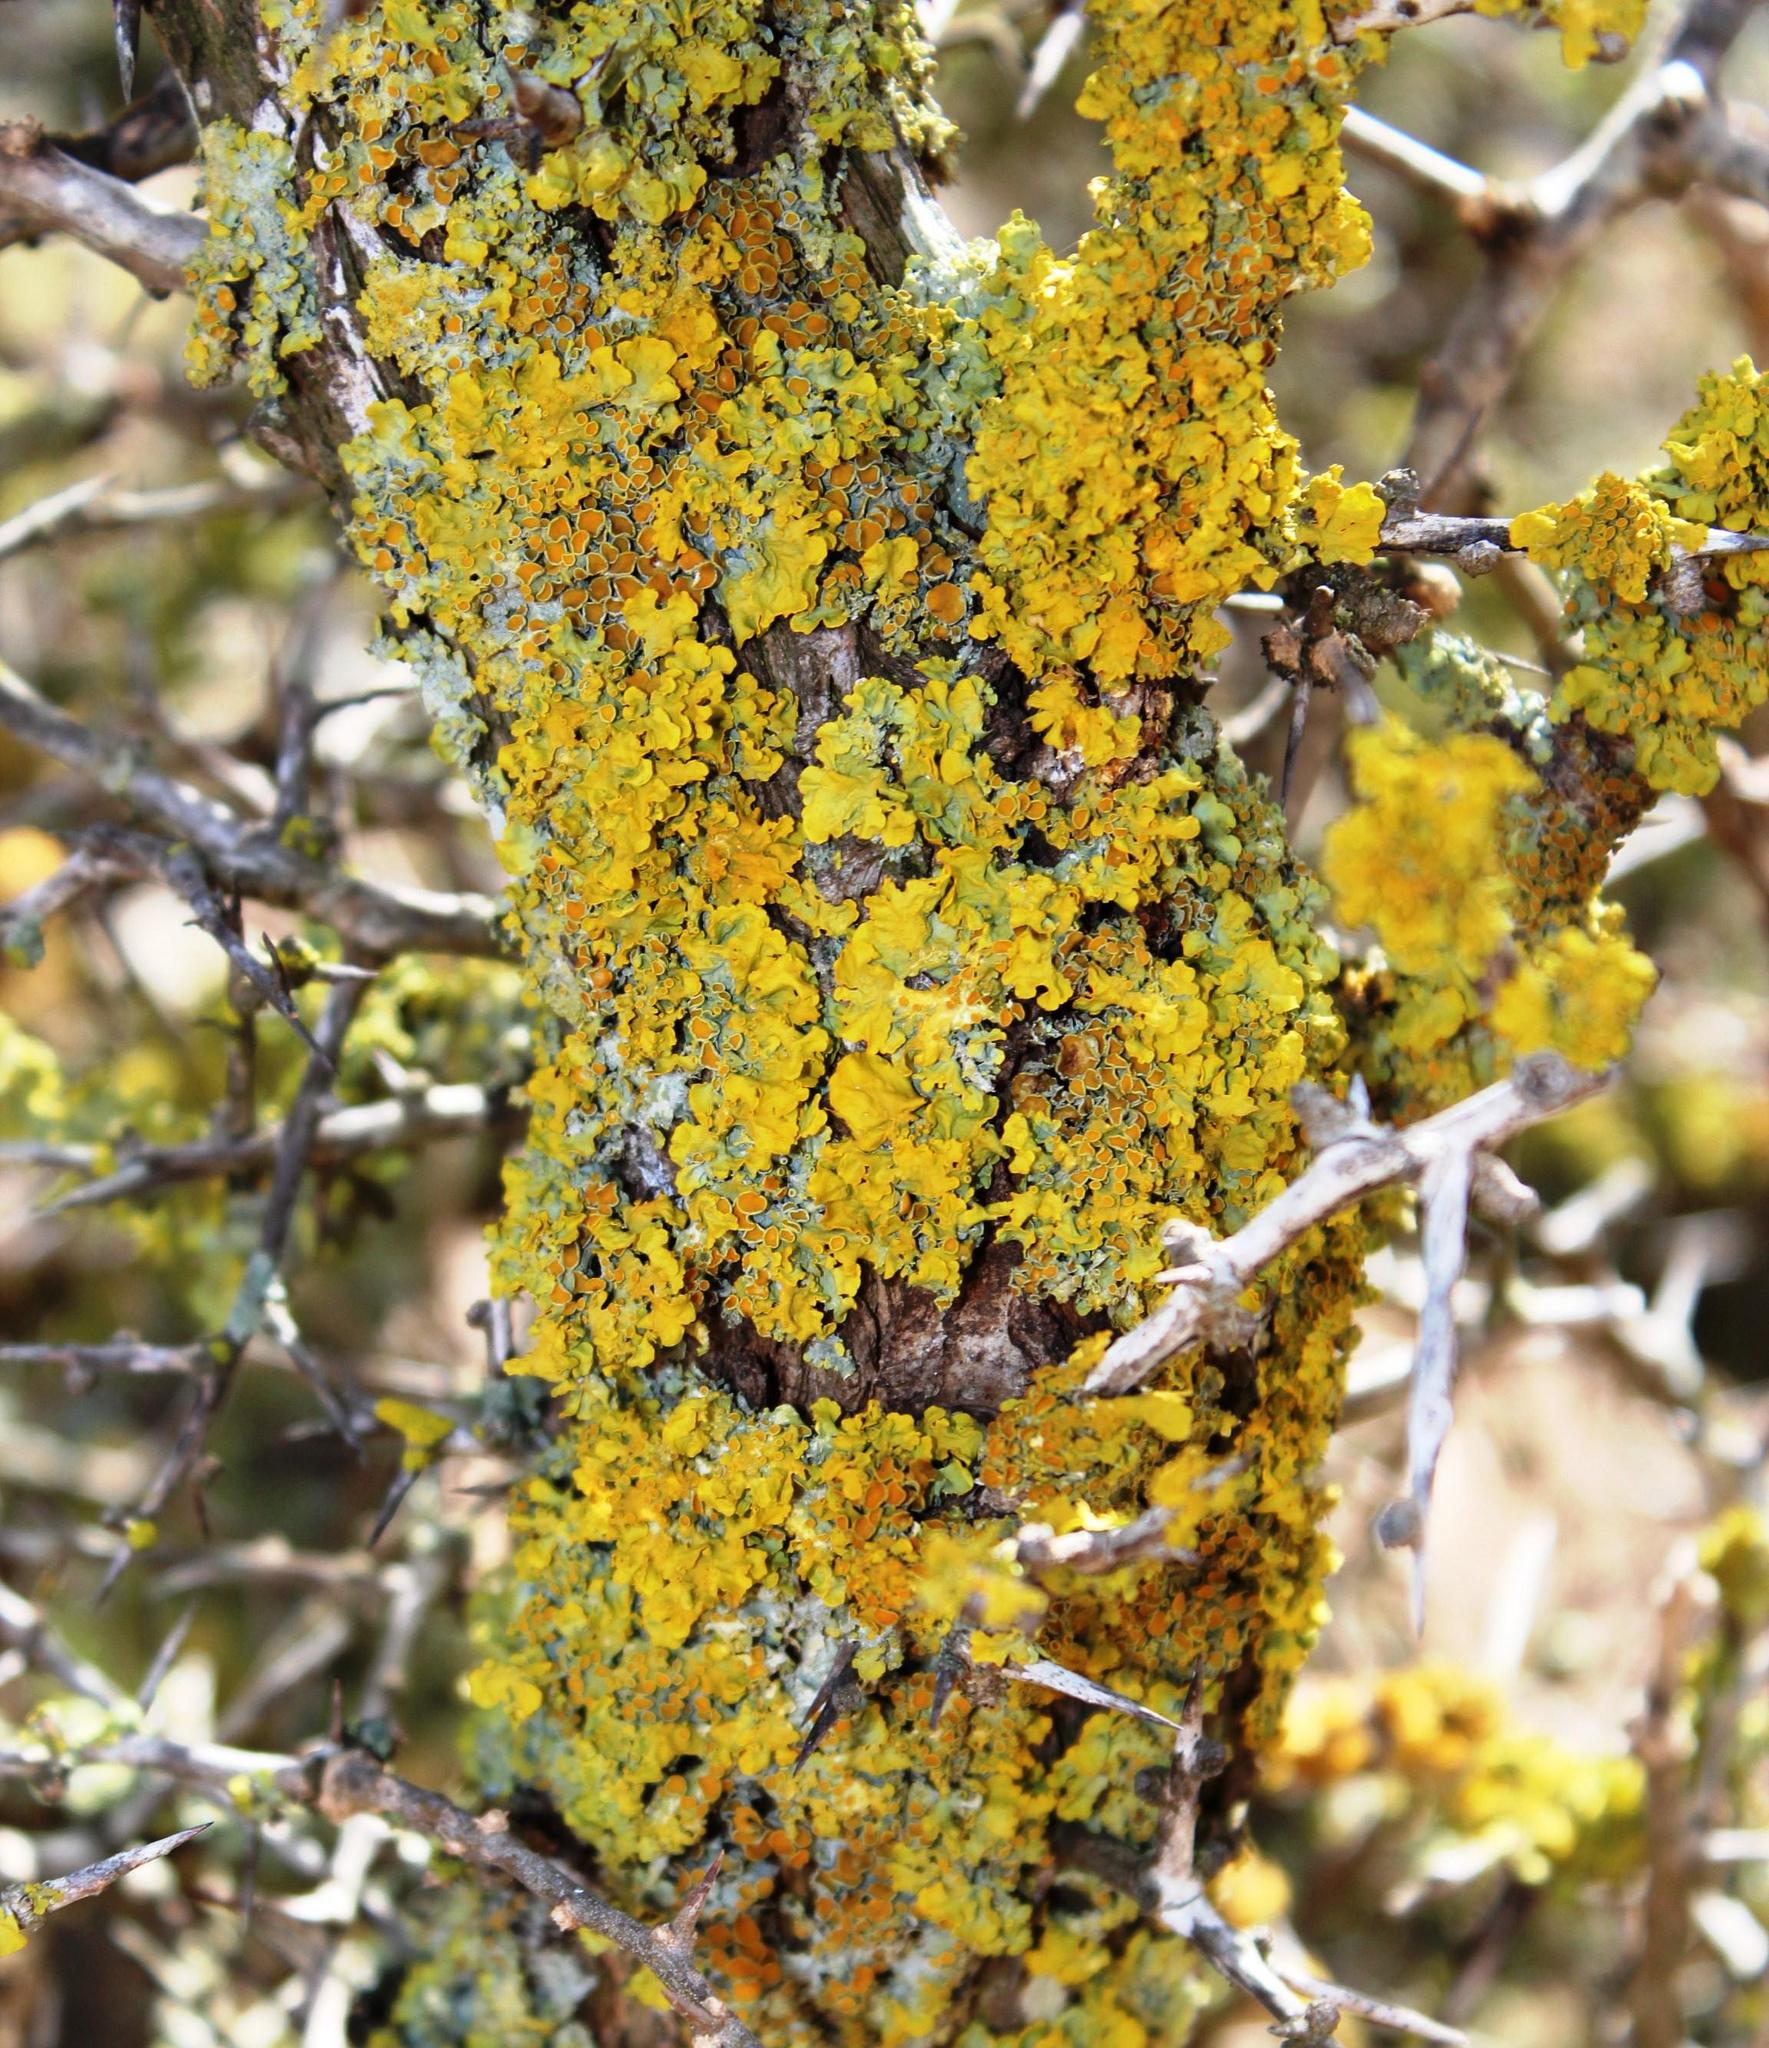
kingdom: Fungi
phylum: Ascomycota
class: Lecanoromycetes
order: Teloschistales
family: Teloschistaceae
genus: Xanthoria
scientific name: Xanthoria parietina
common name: Common orange lichen
